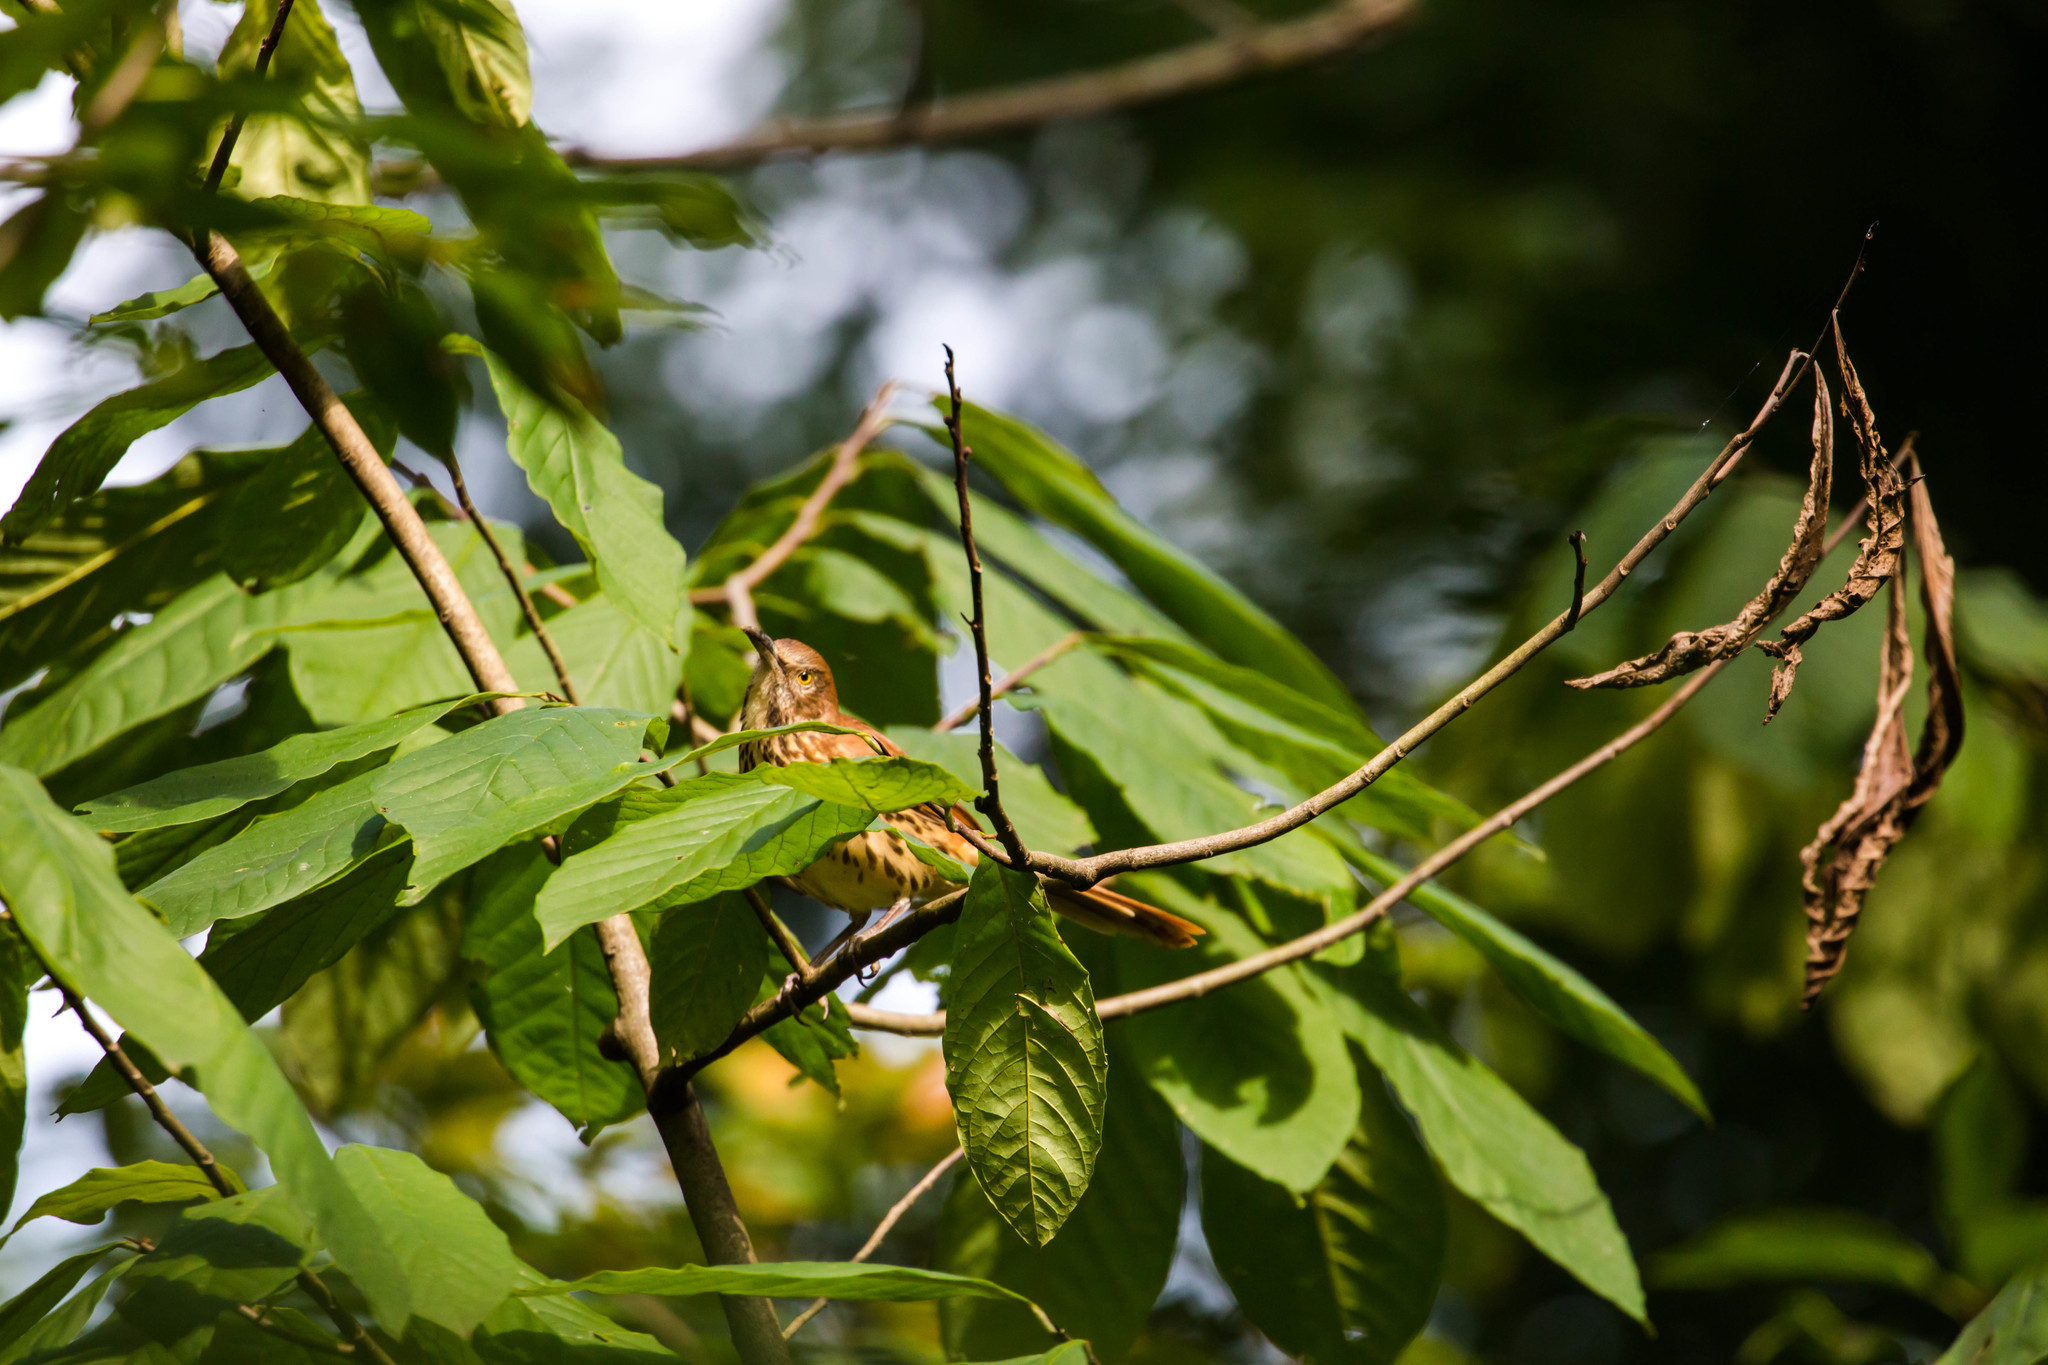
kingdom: Animalia
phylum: Chordata
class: Aves
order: Passeriformes
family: Mimidae
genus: Toxostoma
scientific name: Toxostoma rufum
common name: Brown thrasher
